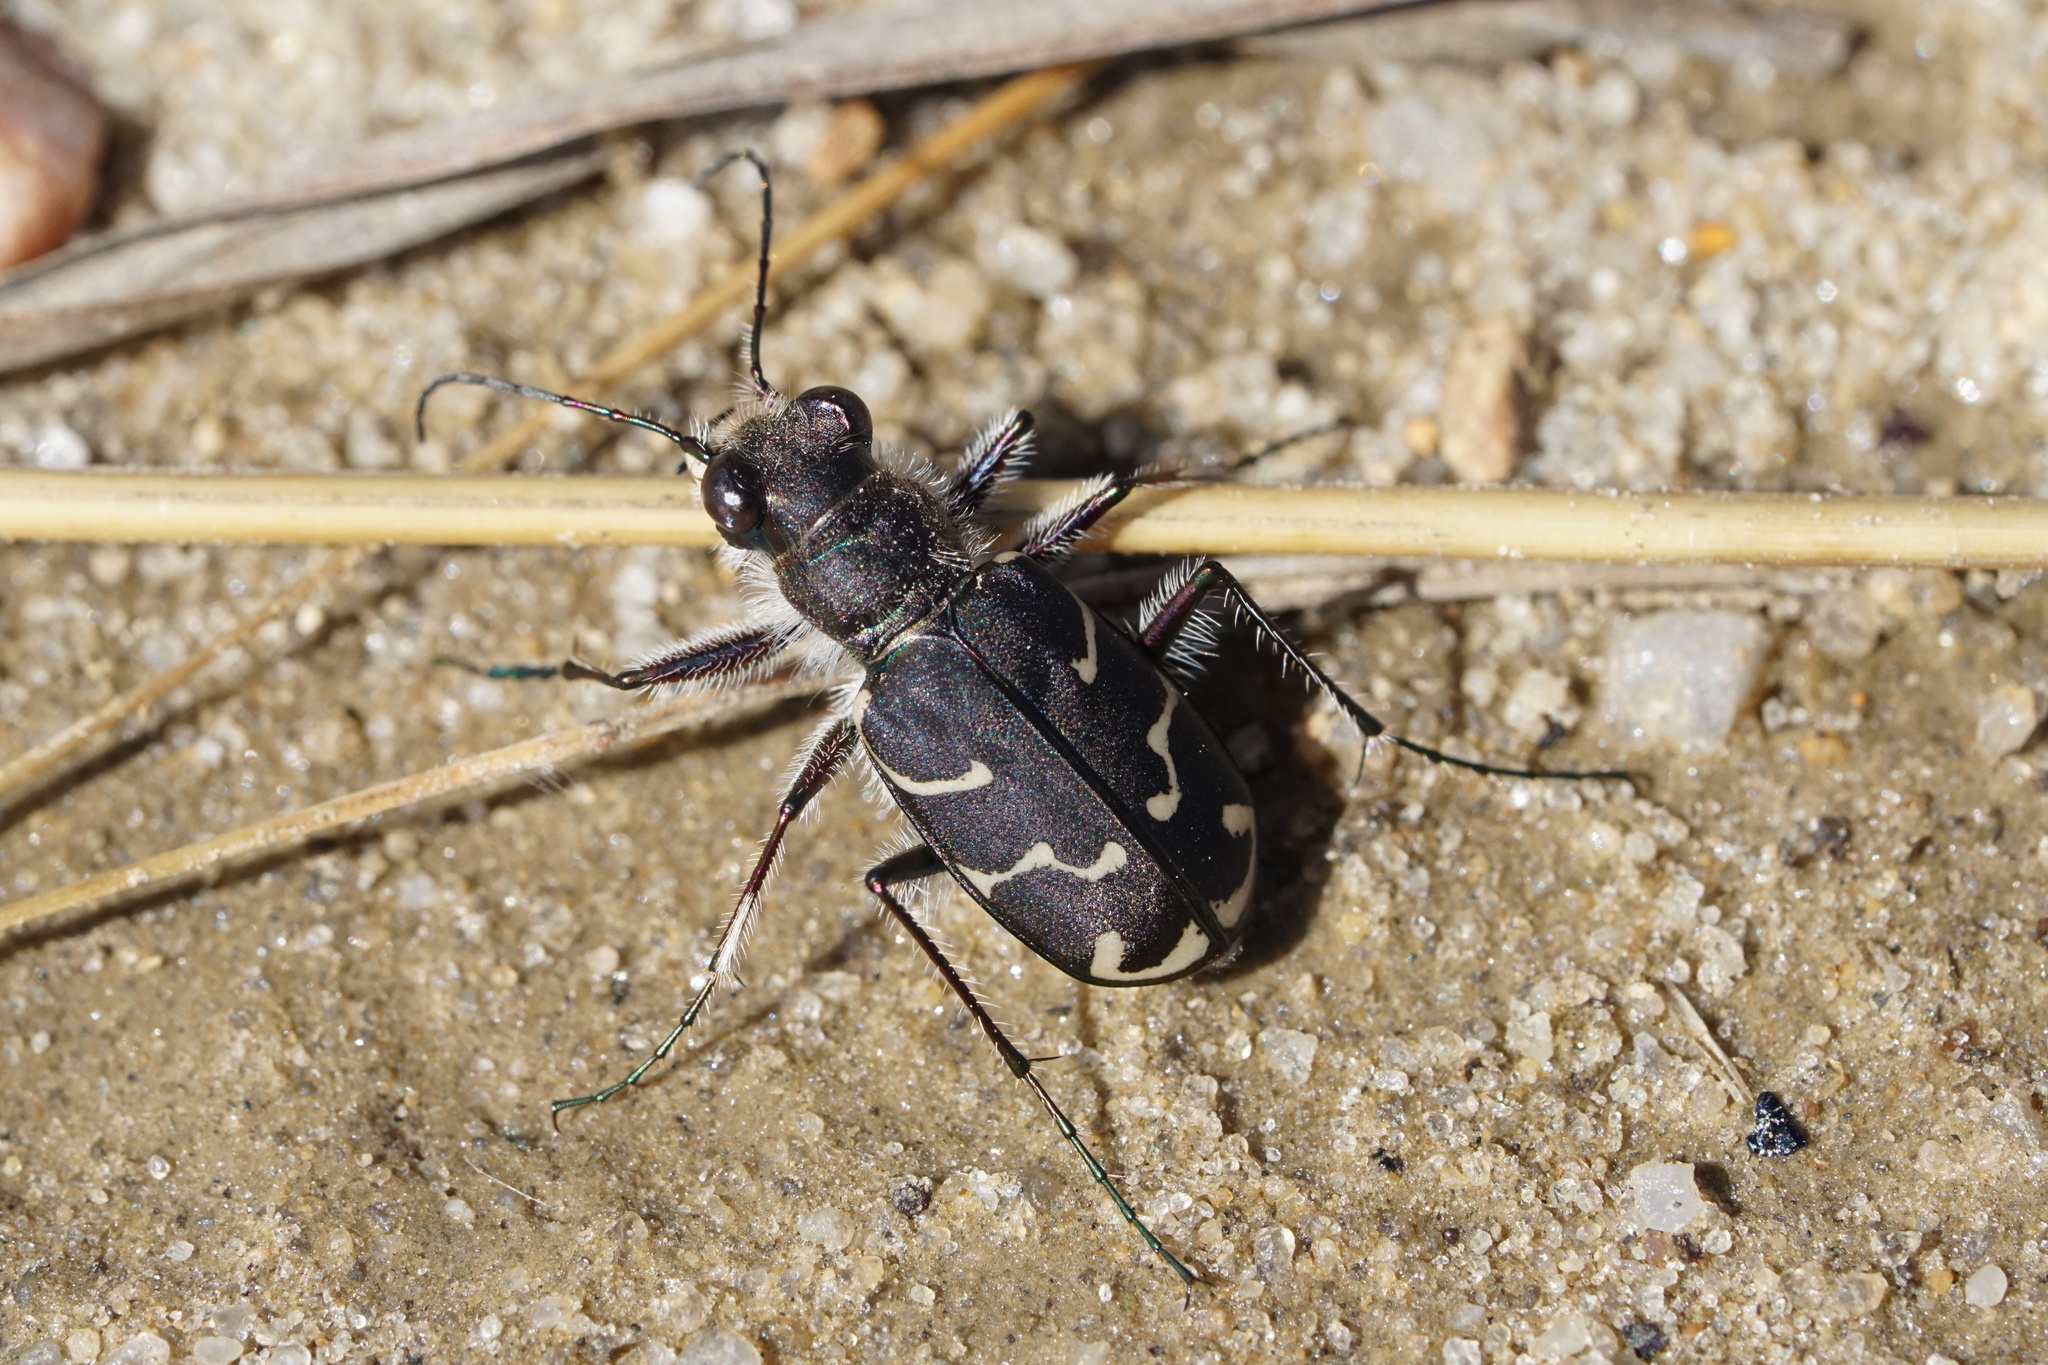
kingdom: Animalia
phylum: Arthropoda
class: Insecta
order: Coleoptera
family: Carabidae
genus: Cicindela
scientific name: Cicindela tranquebarica
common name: Oblique-lined tiger beetle
